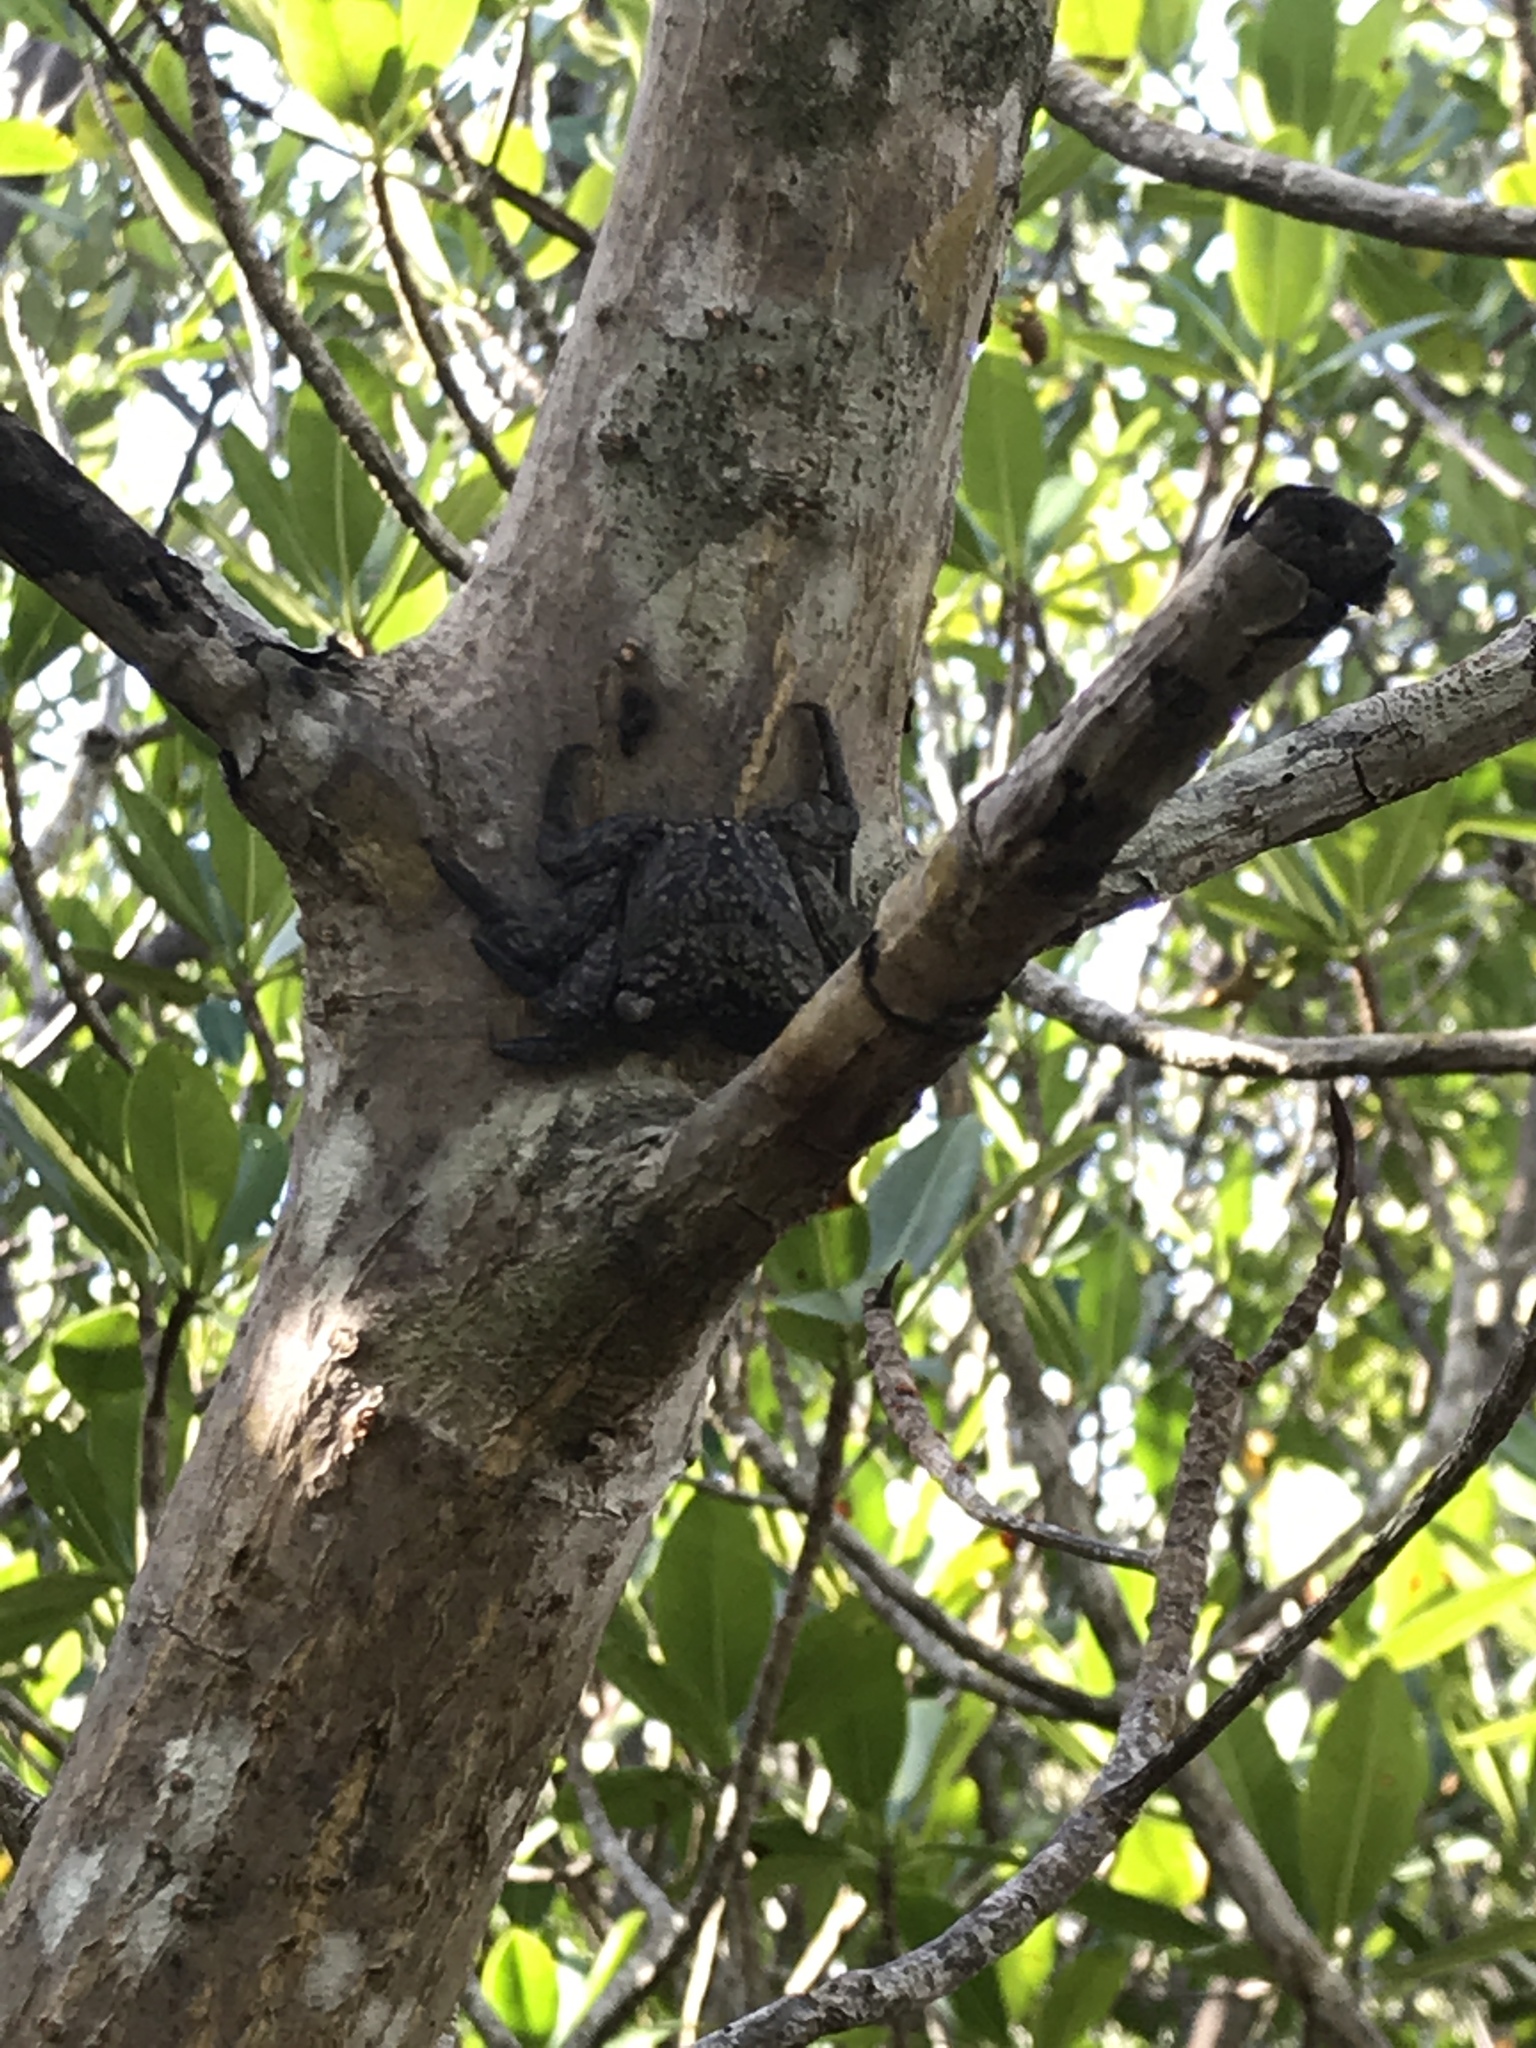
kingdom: Animalia
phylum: Arthropoda
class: Malacostraca
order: Decapoda
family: Sesarmidae
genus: Aratus
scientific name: Aratus pisonii
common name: Mangrove crab
